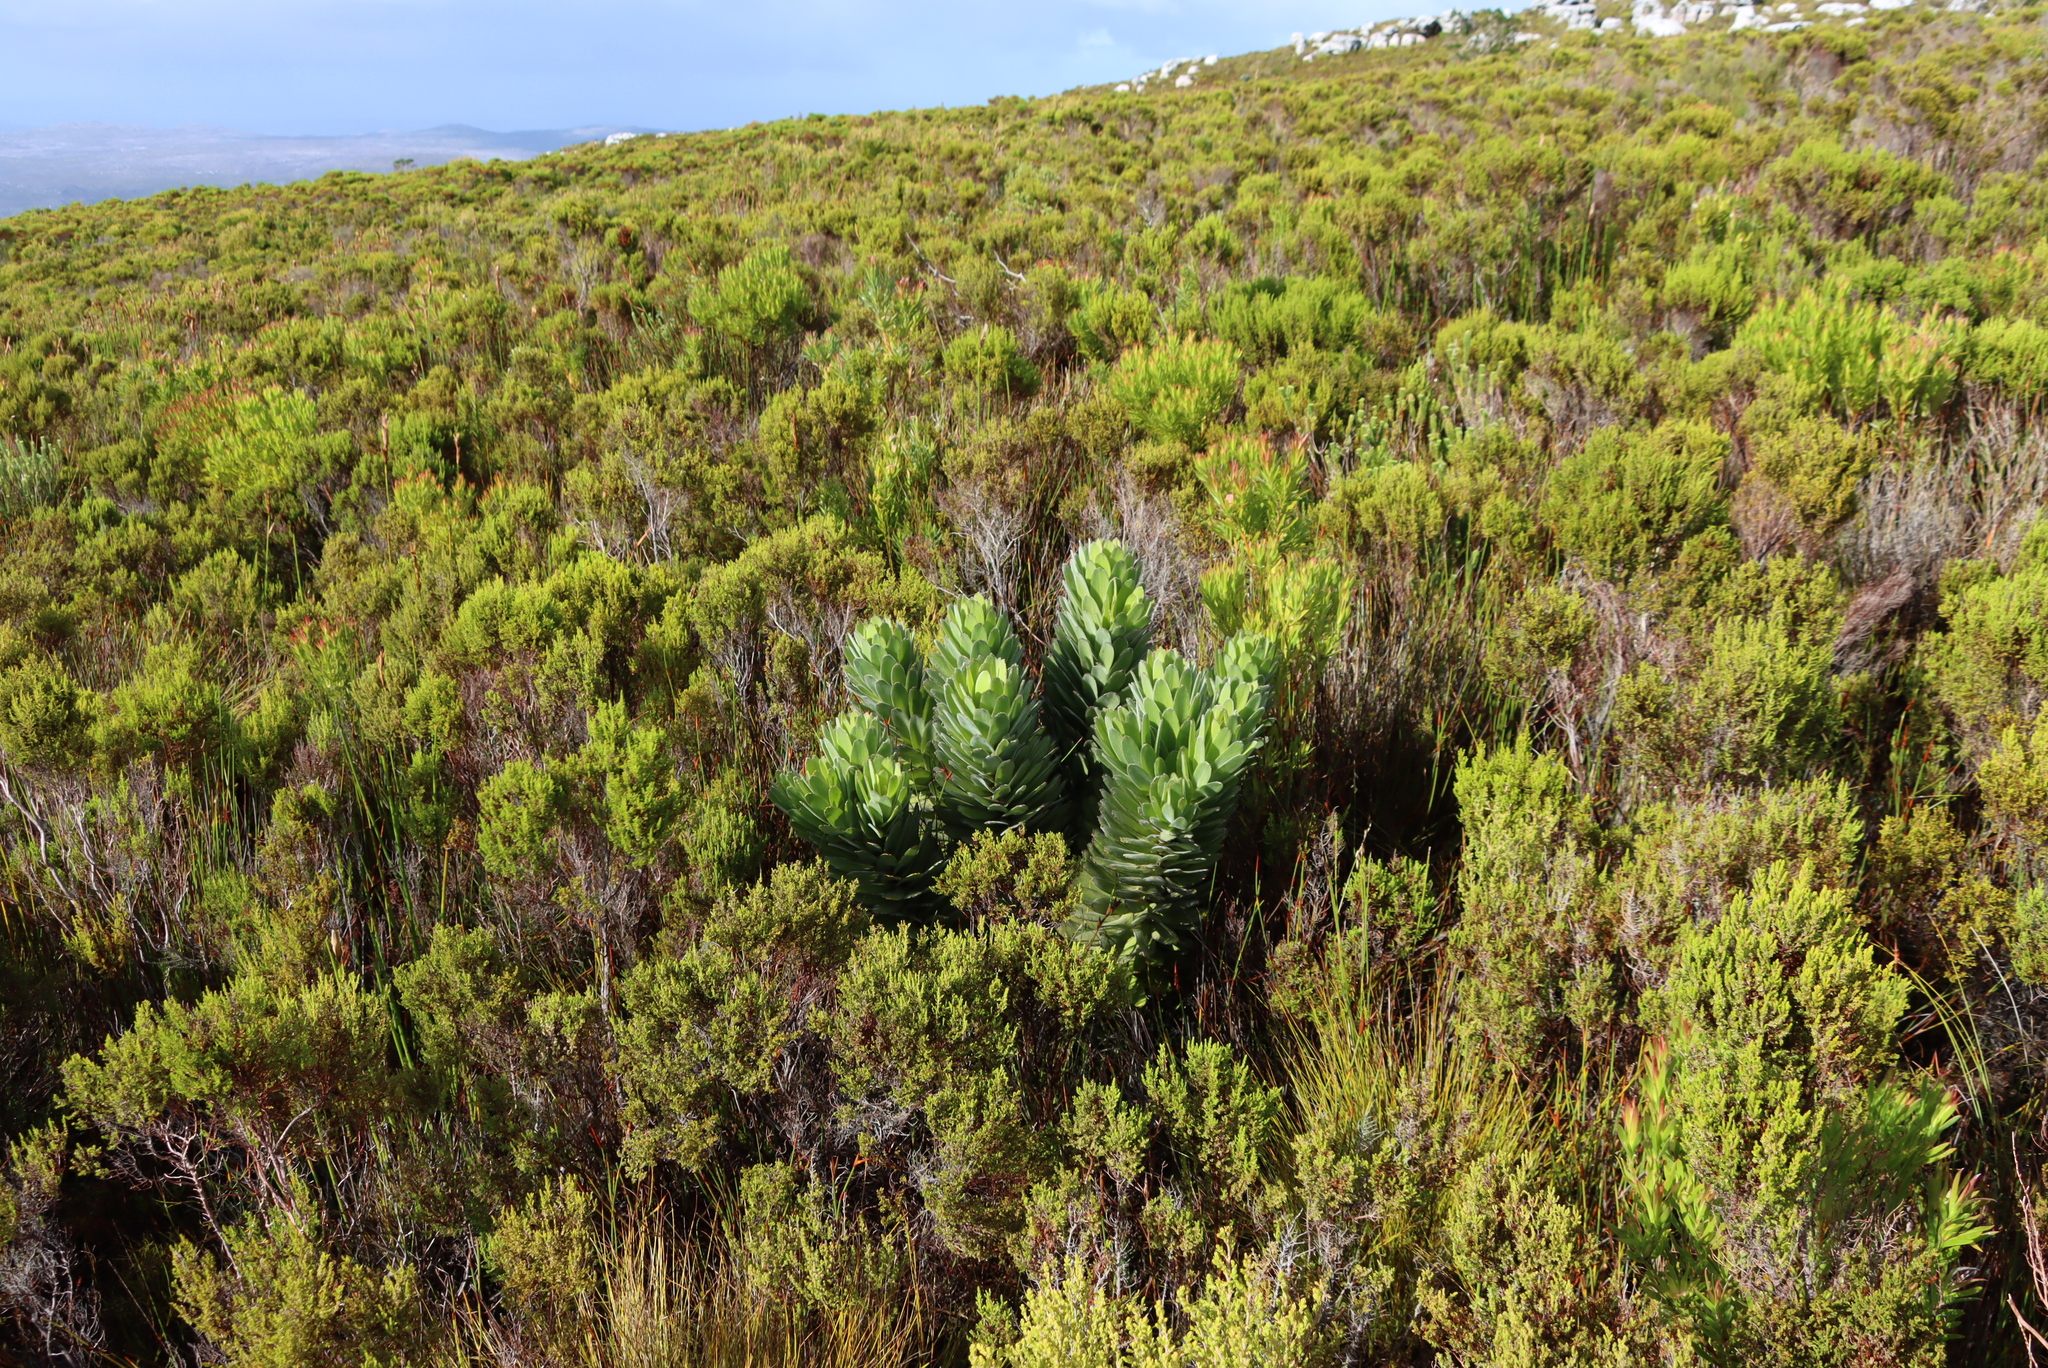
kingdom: Plantae
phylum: Tracheophyta
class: Magnoliopsida
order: Proteales
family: Proteaceae
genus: Leucospermum
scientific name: Leucospermum conocarpodendron
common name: Tree pincushion
